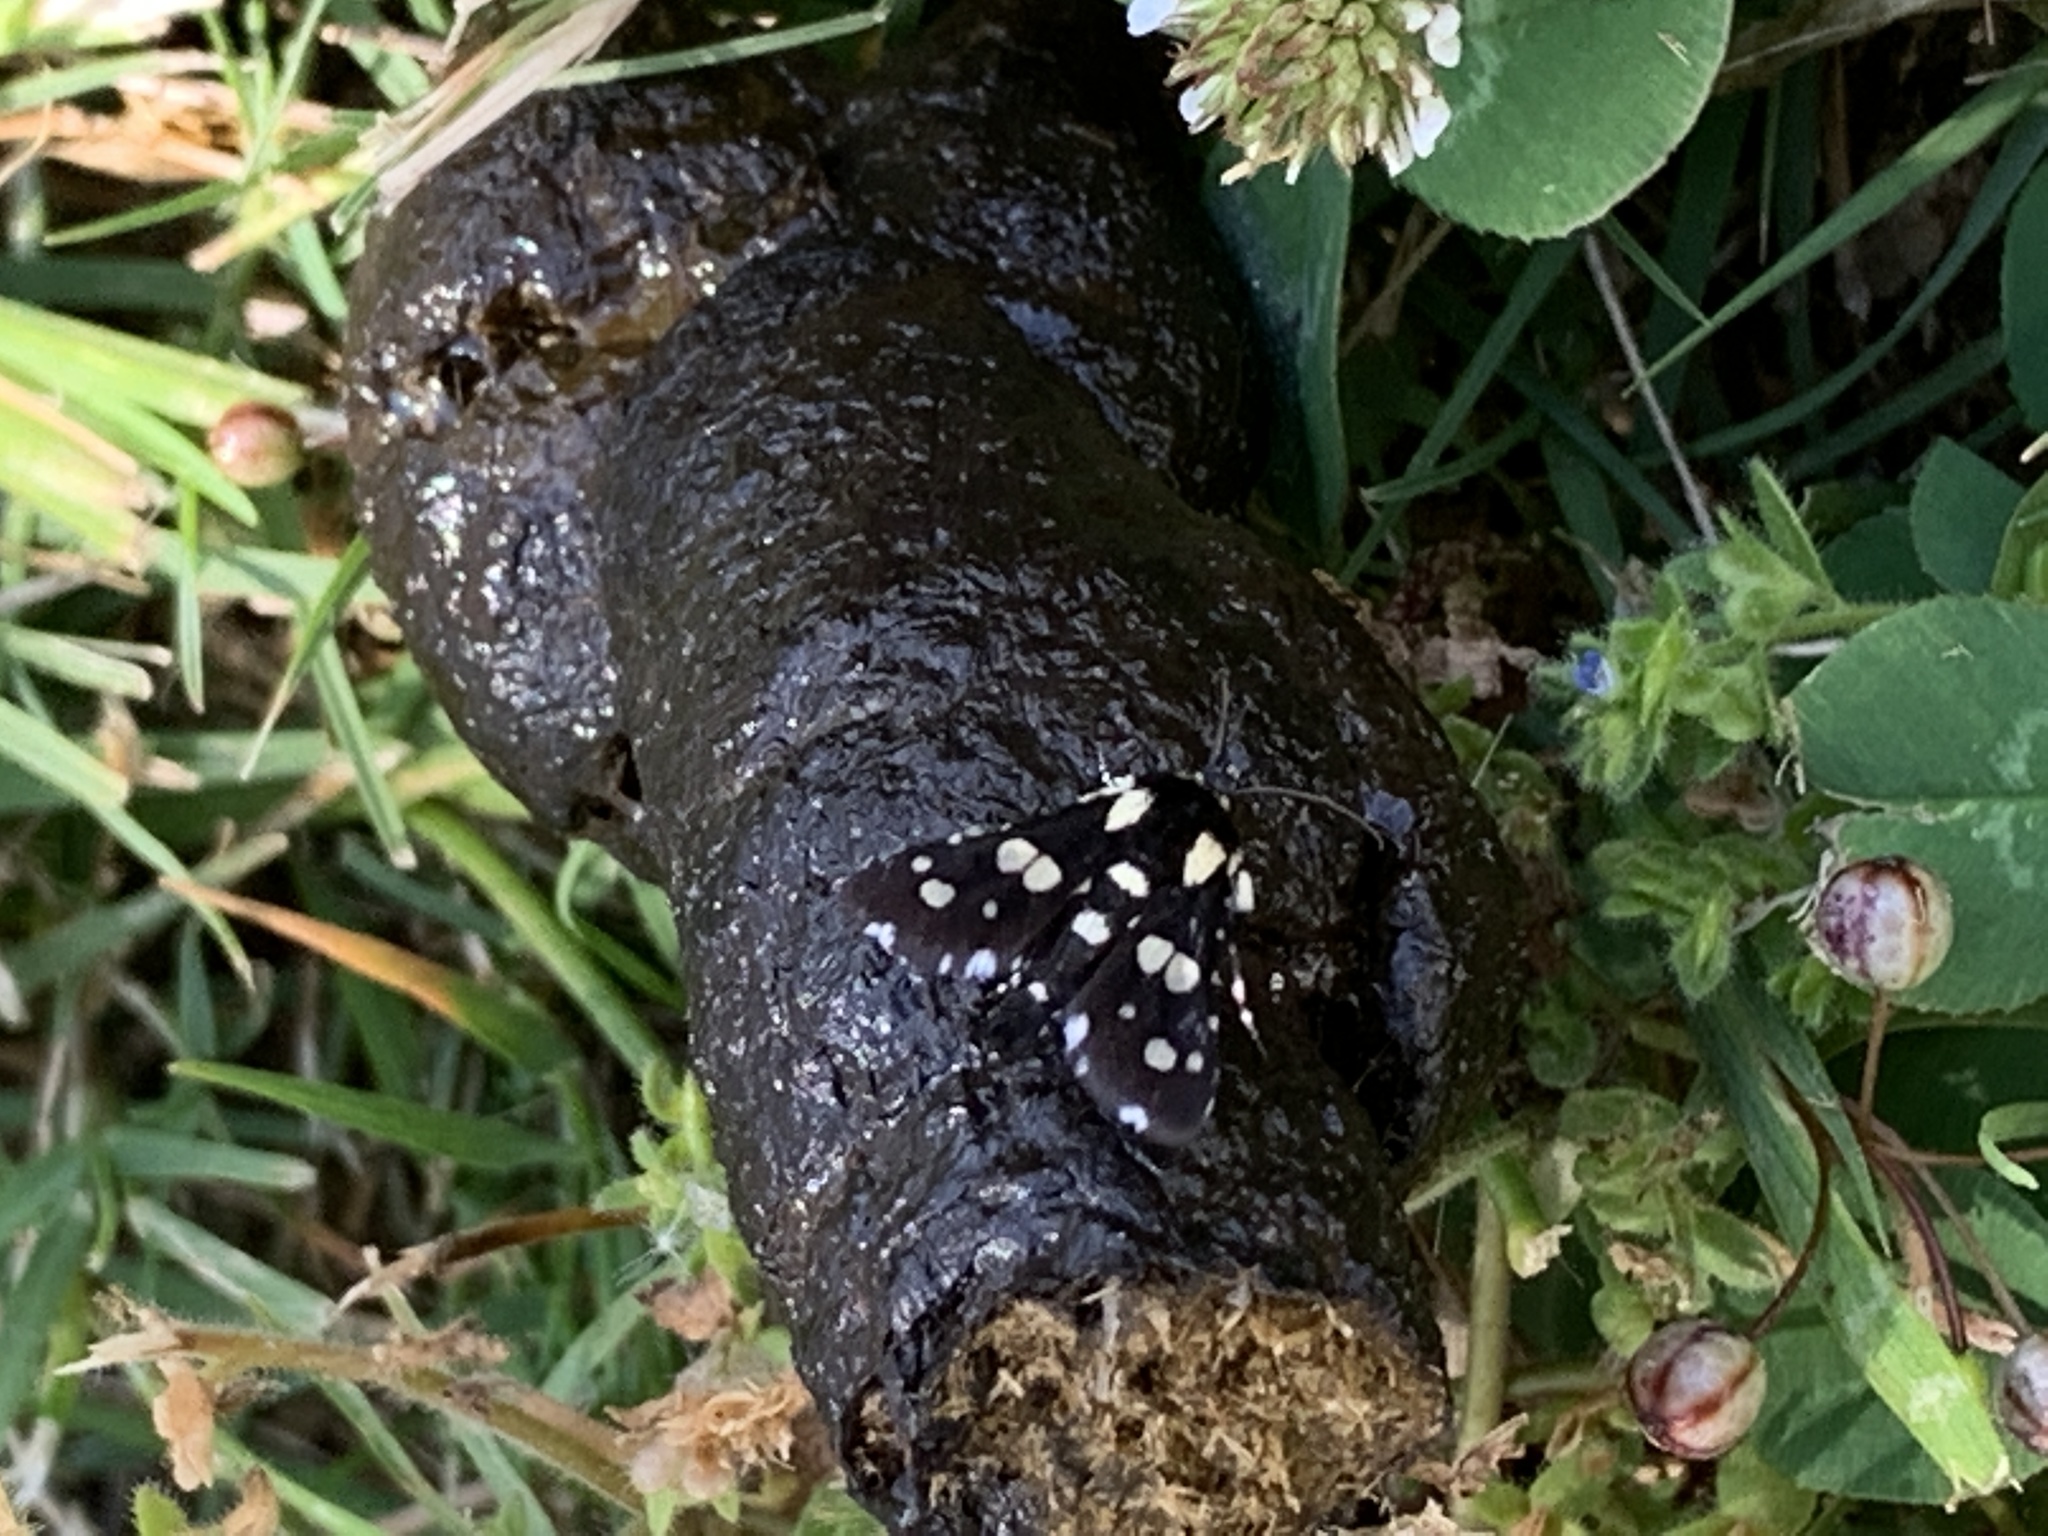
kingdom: Animalia
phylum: Arthropoda
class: Insecta
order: Lepidoptera
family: Thyrididae
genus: Pseudothyris
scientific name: Pseudothyris sepulchralis
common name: Mournful thyris moth
